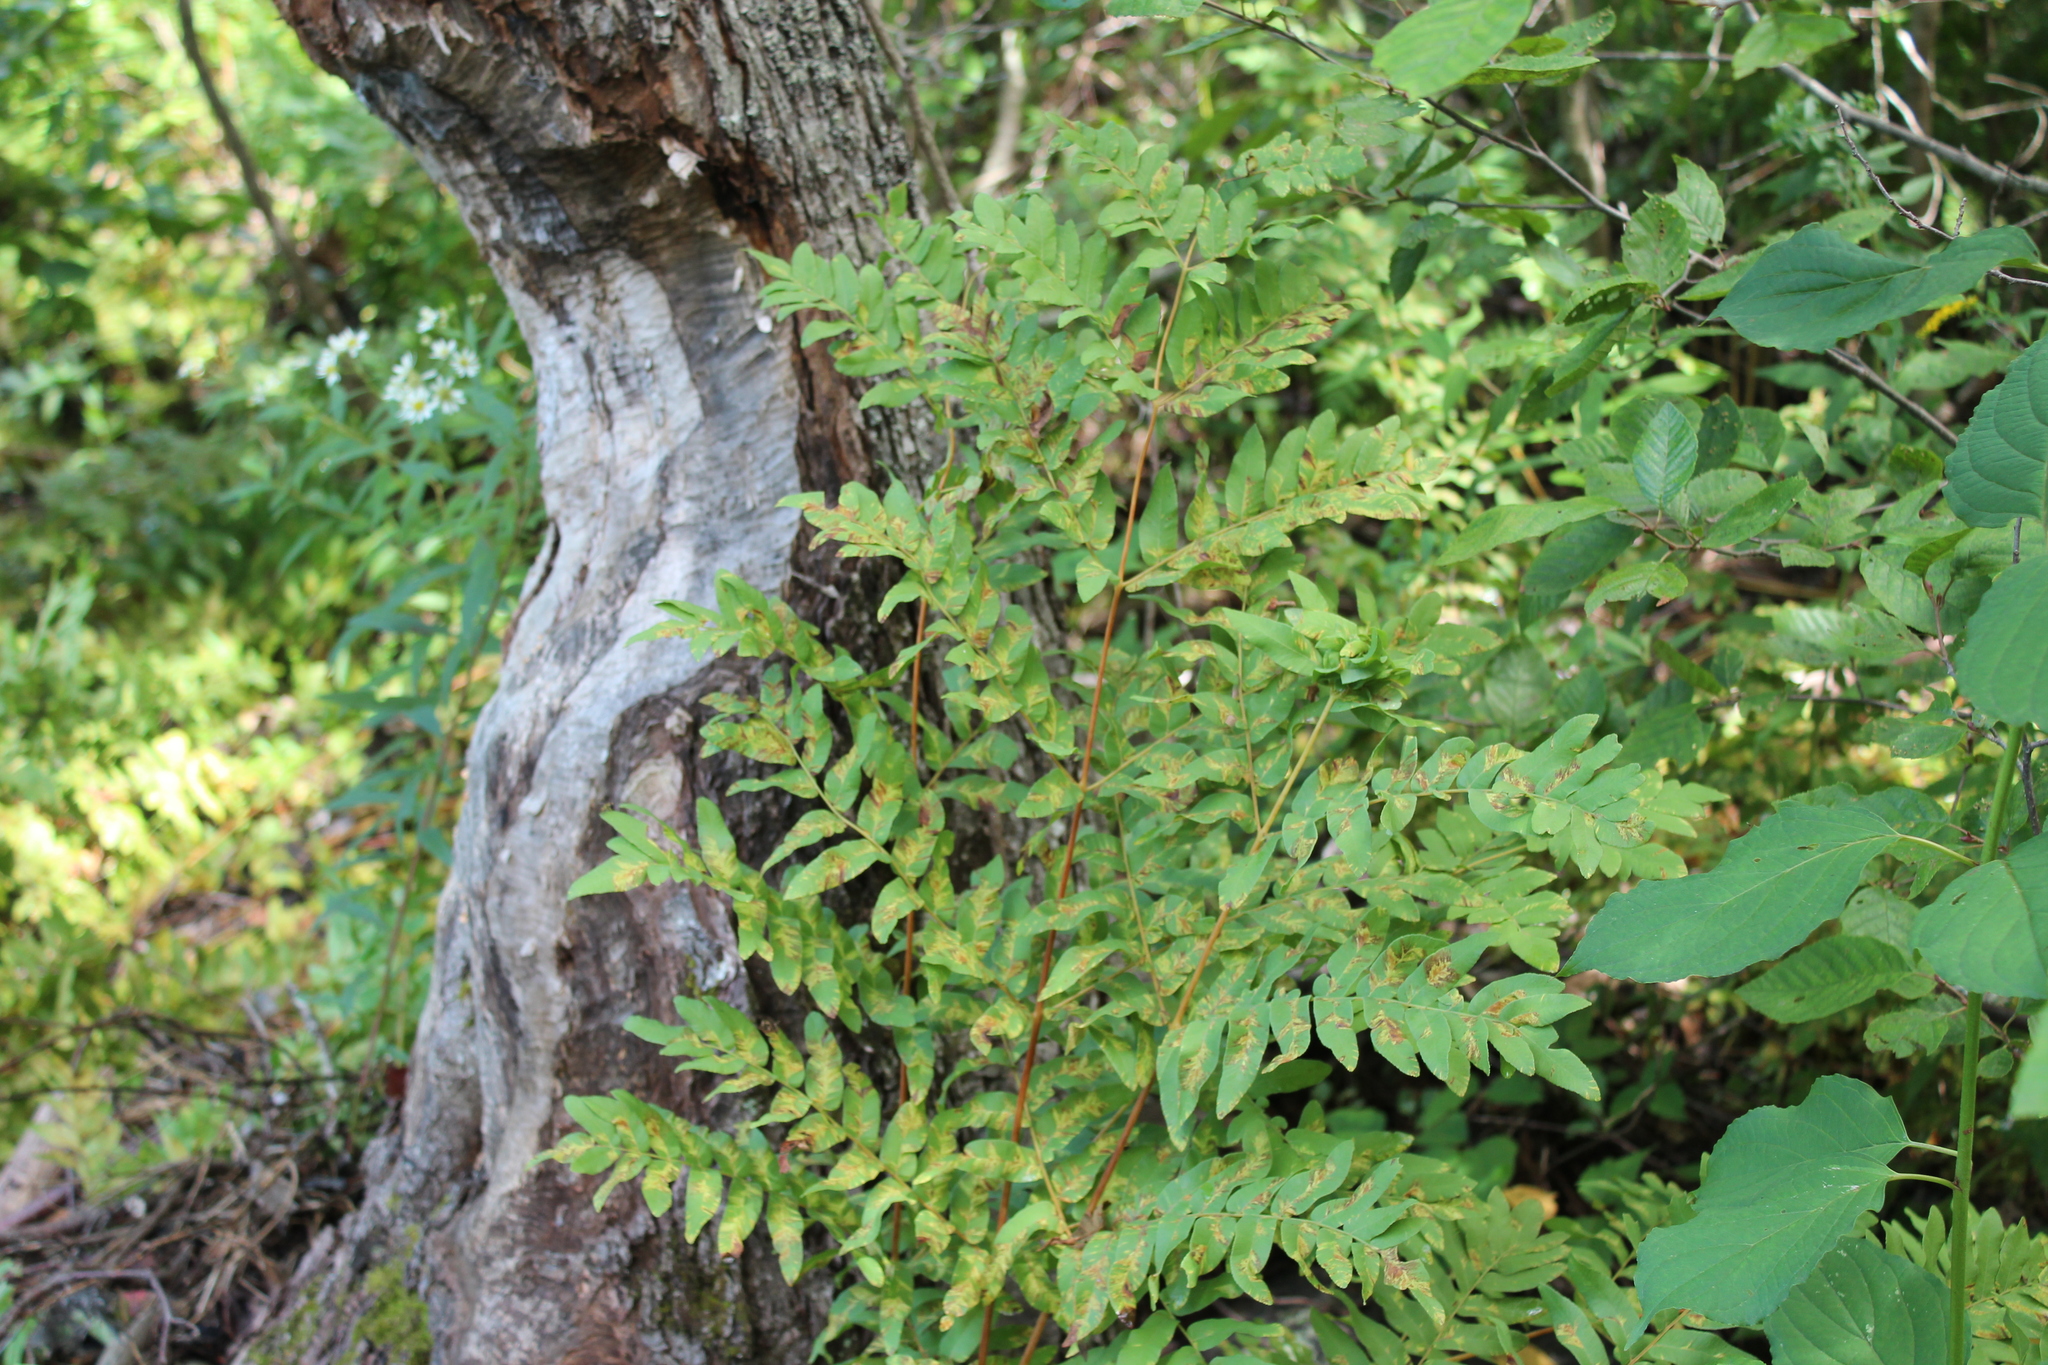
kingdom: Plantae
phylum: Tracheophyta
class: Polypodiopsida
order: Osmundales
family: Osmundaceae
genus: Osmunda
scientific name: Osmunda spectabilis
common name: American royal fern
